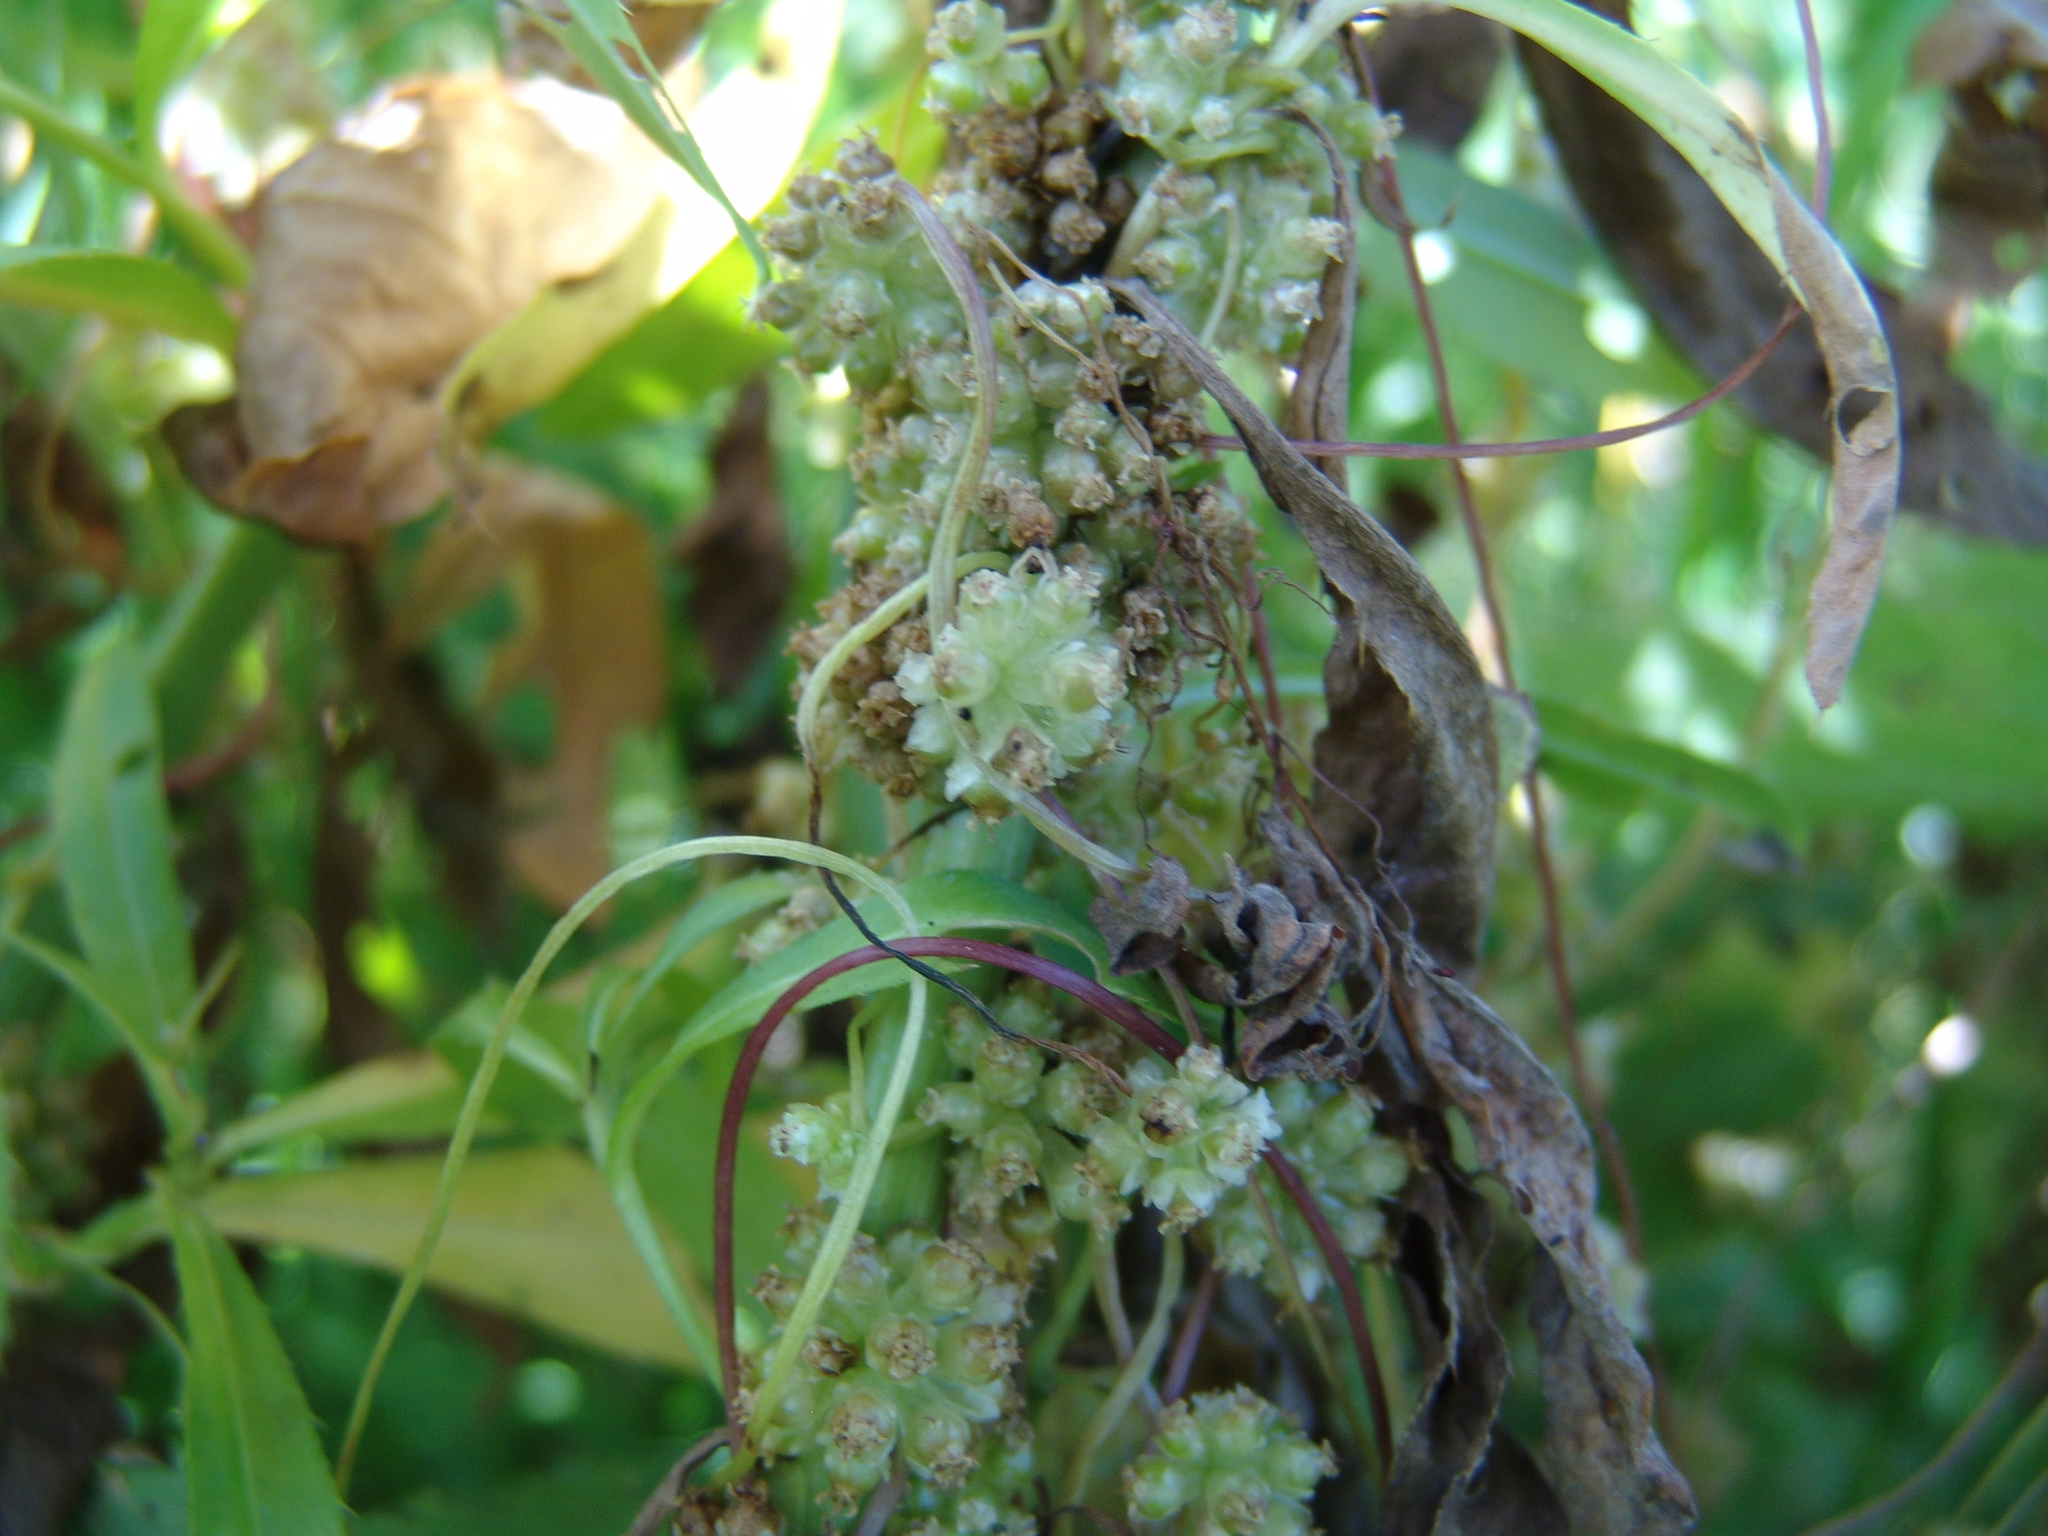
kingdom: Plantae
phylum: Tracheophyta
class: Magnoliopsida
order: Solanales
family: Convolvulaceae
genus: Cuscuta
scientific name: Cuscuta europaea
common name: Greater dodder
